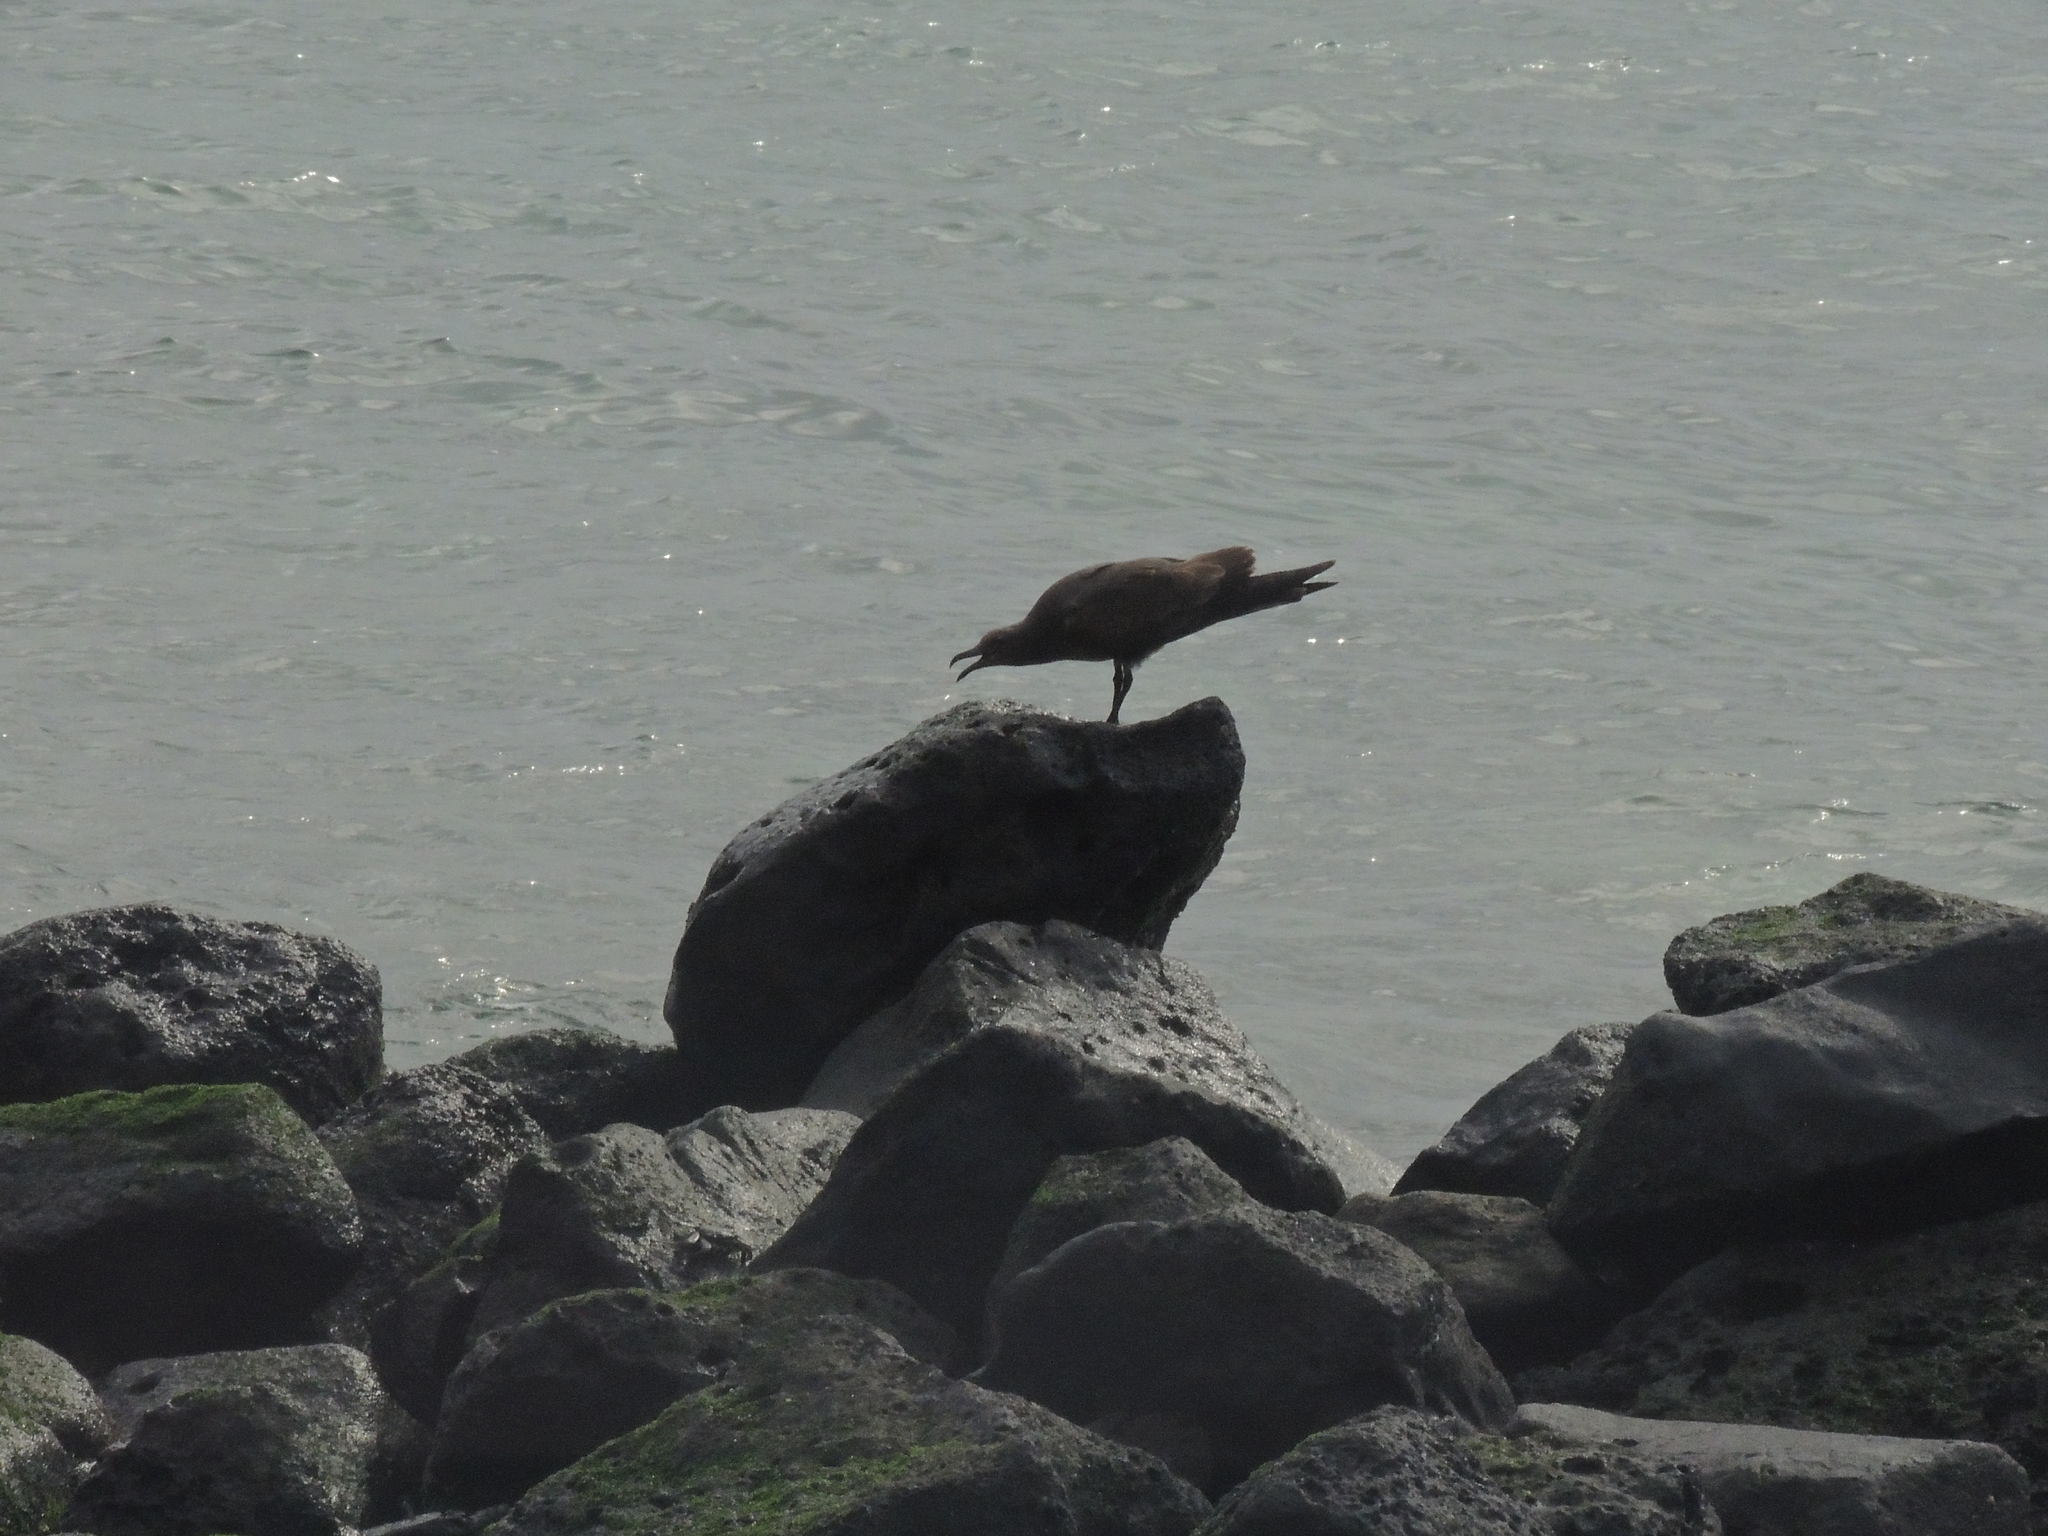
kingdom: Animalia
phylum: Chordata
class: Aves
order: Charadriiformes
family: Laridae
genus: Leucophaeus
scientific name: Leucophaeus fuliginosus
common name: Lava gull
